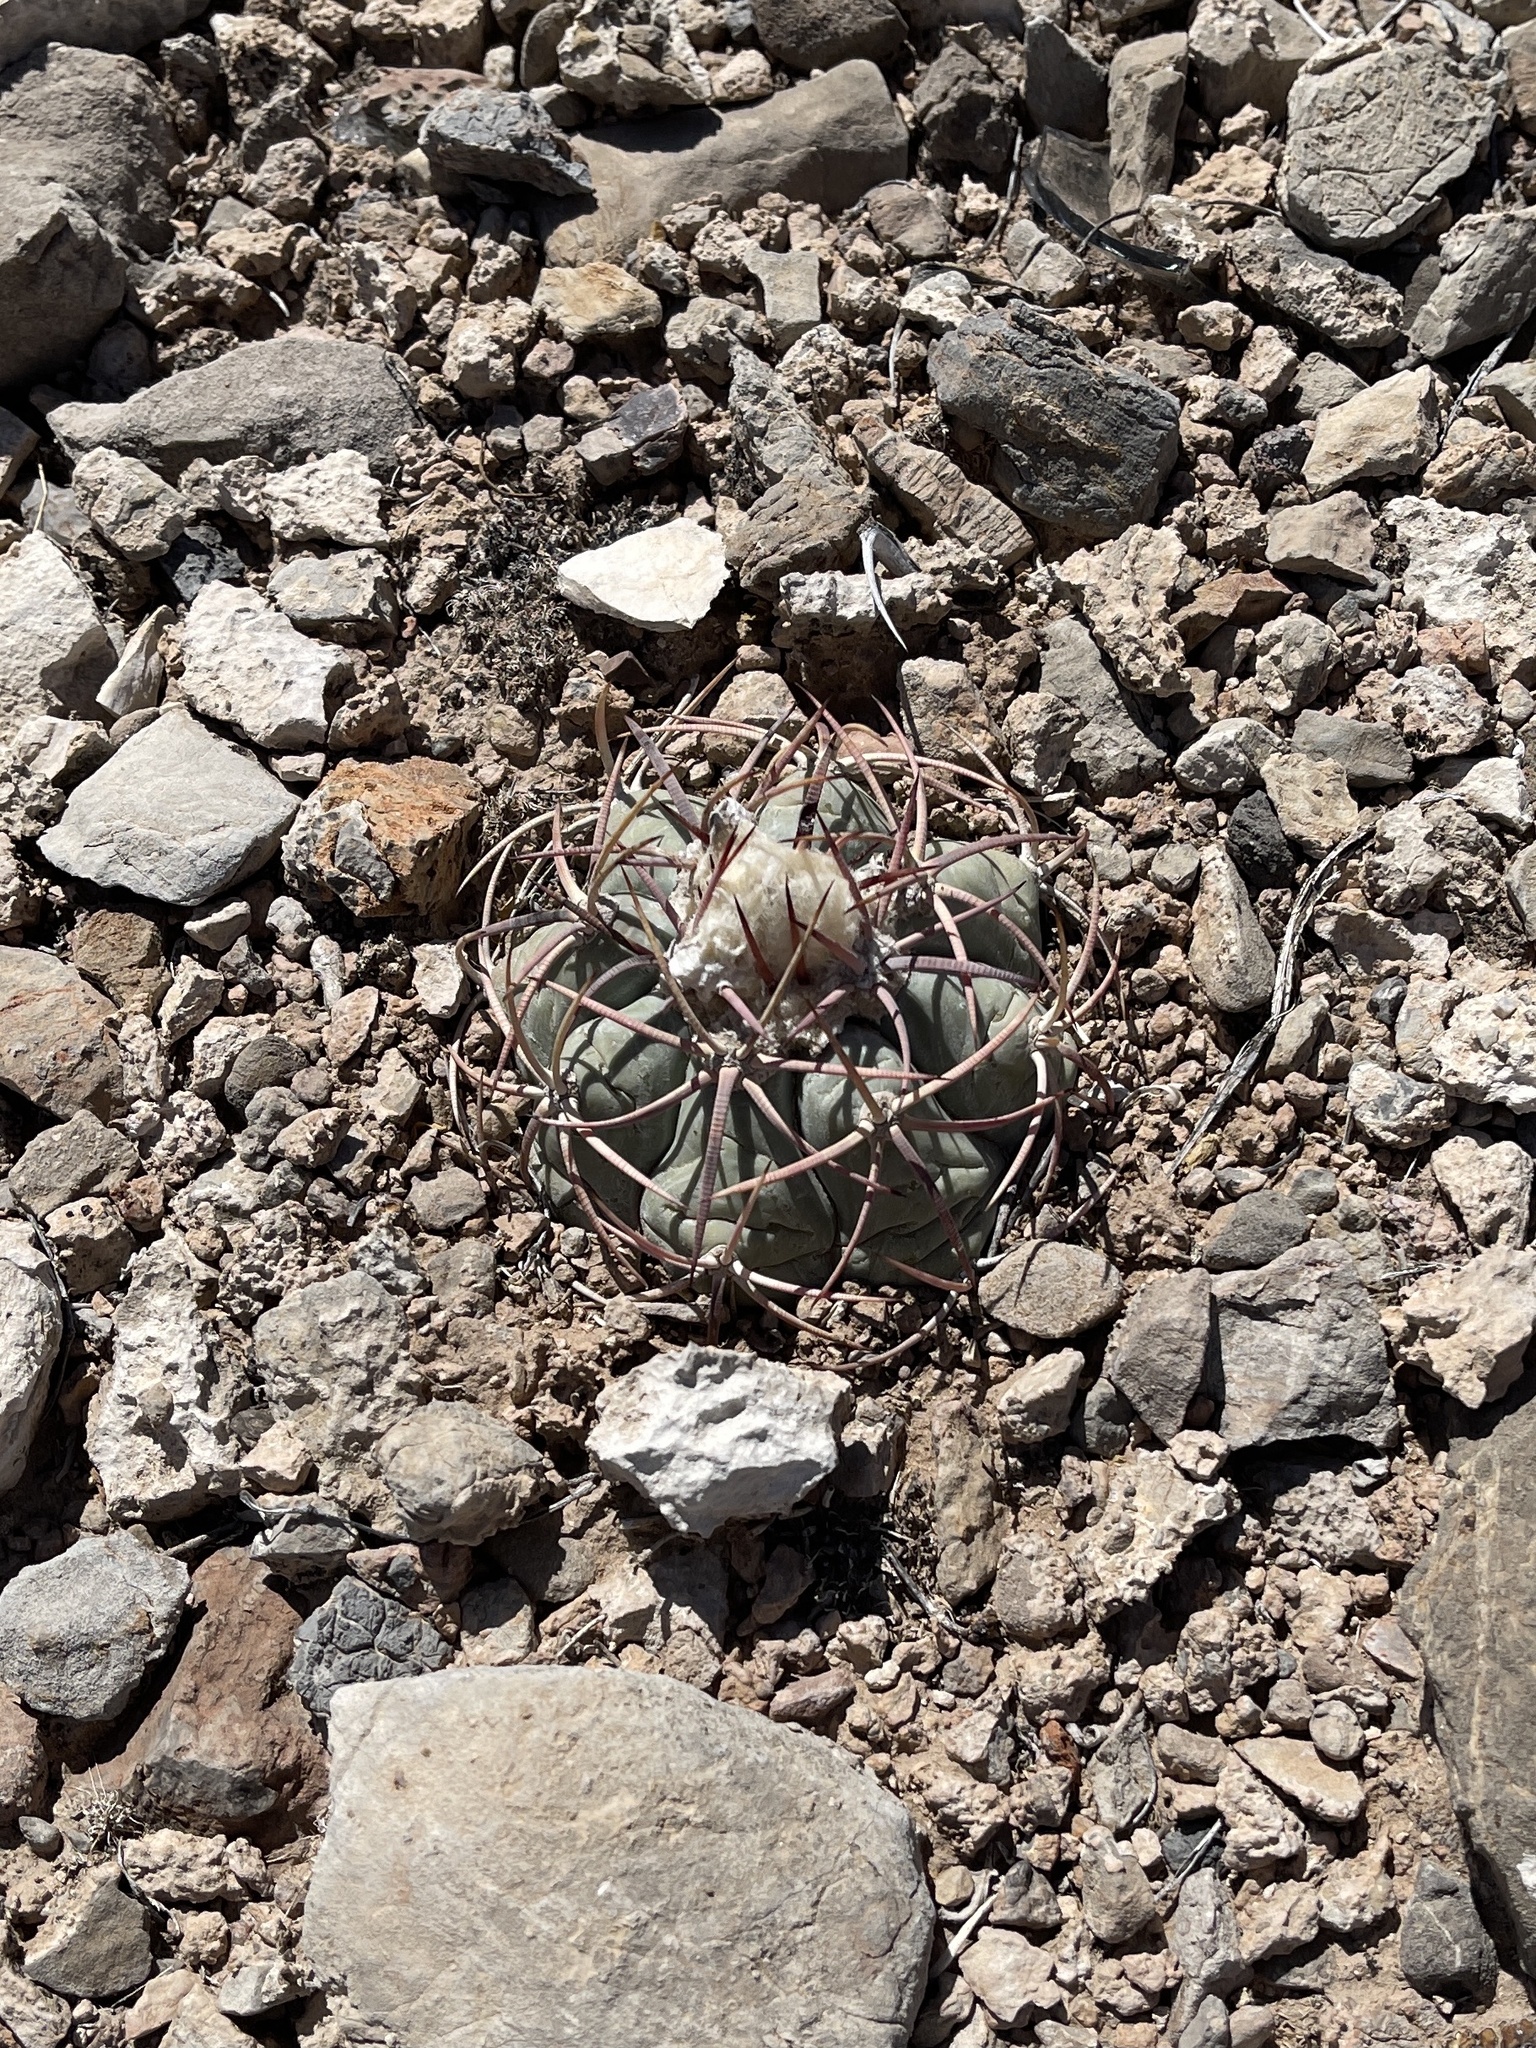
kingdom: Plantae
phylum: Tracheophyta
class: Magnoliopsida
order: Caryophyllales
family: Cactaceae
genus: Echinocactus
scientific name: Echinocactus horizonthalonius
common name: Devilshead
